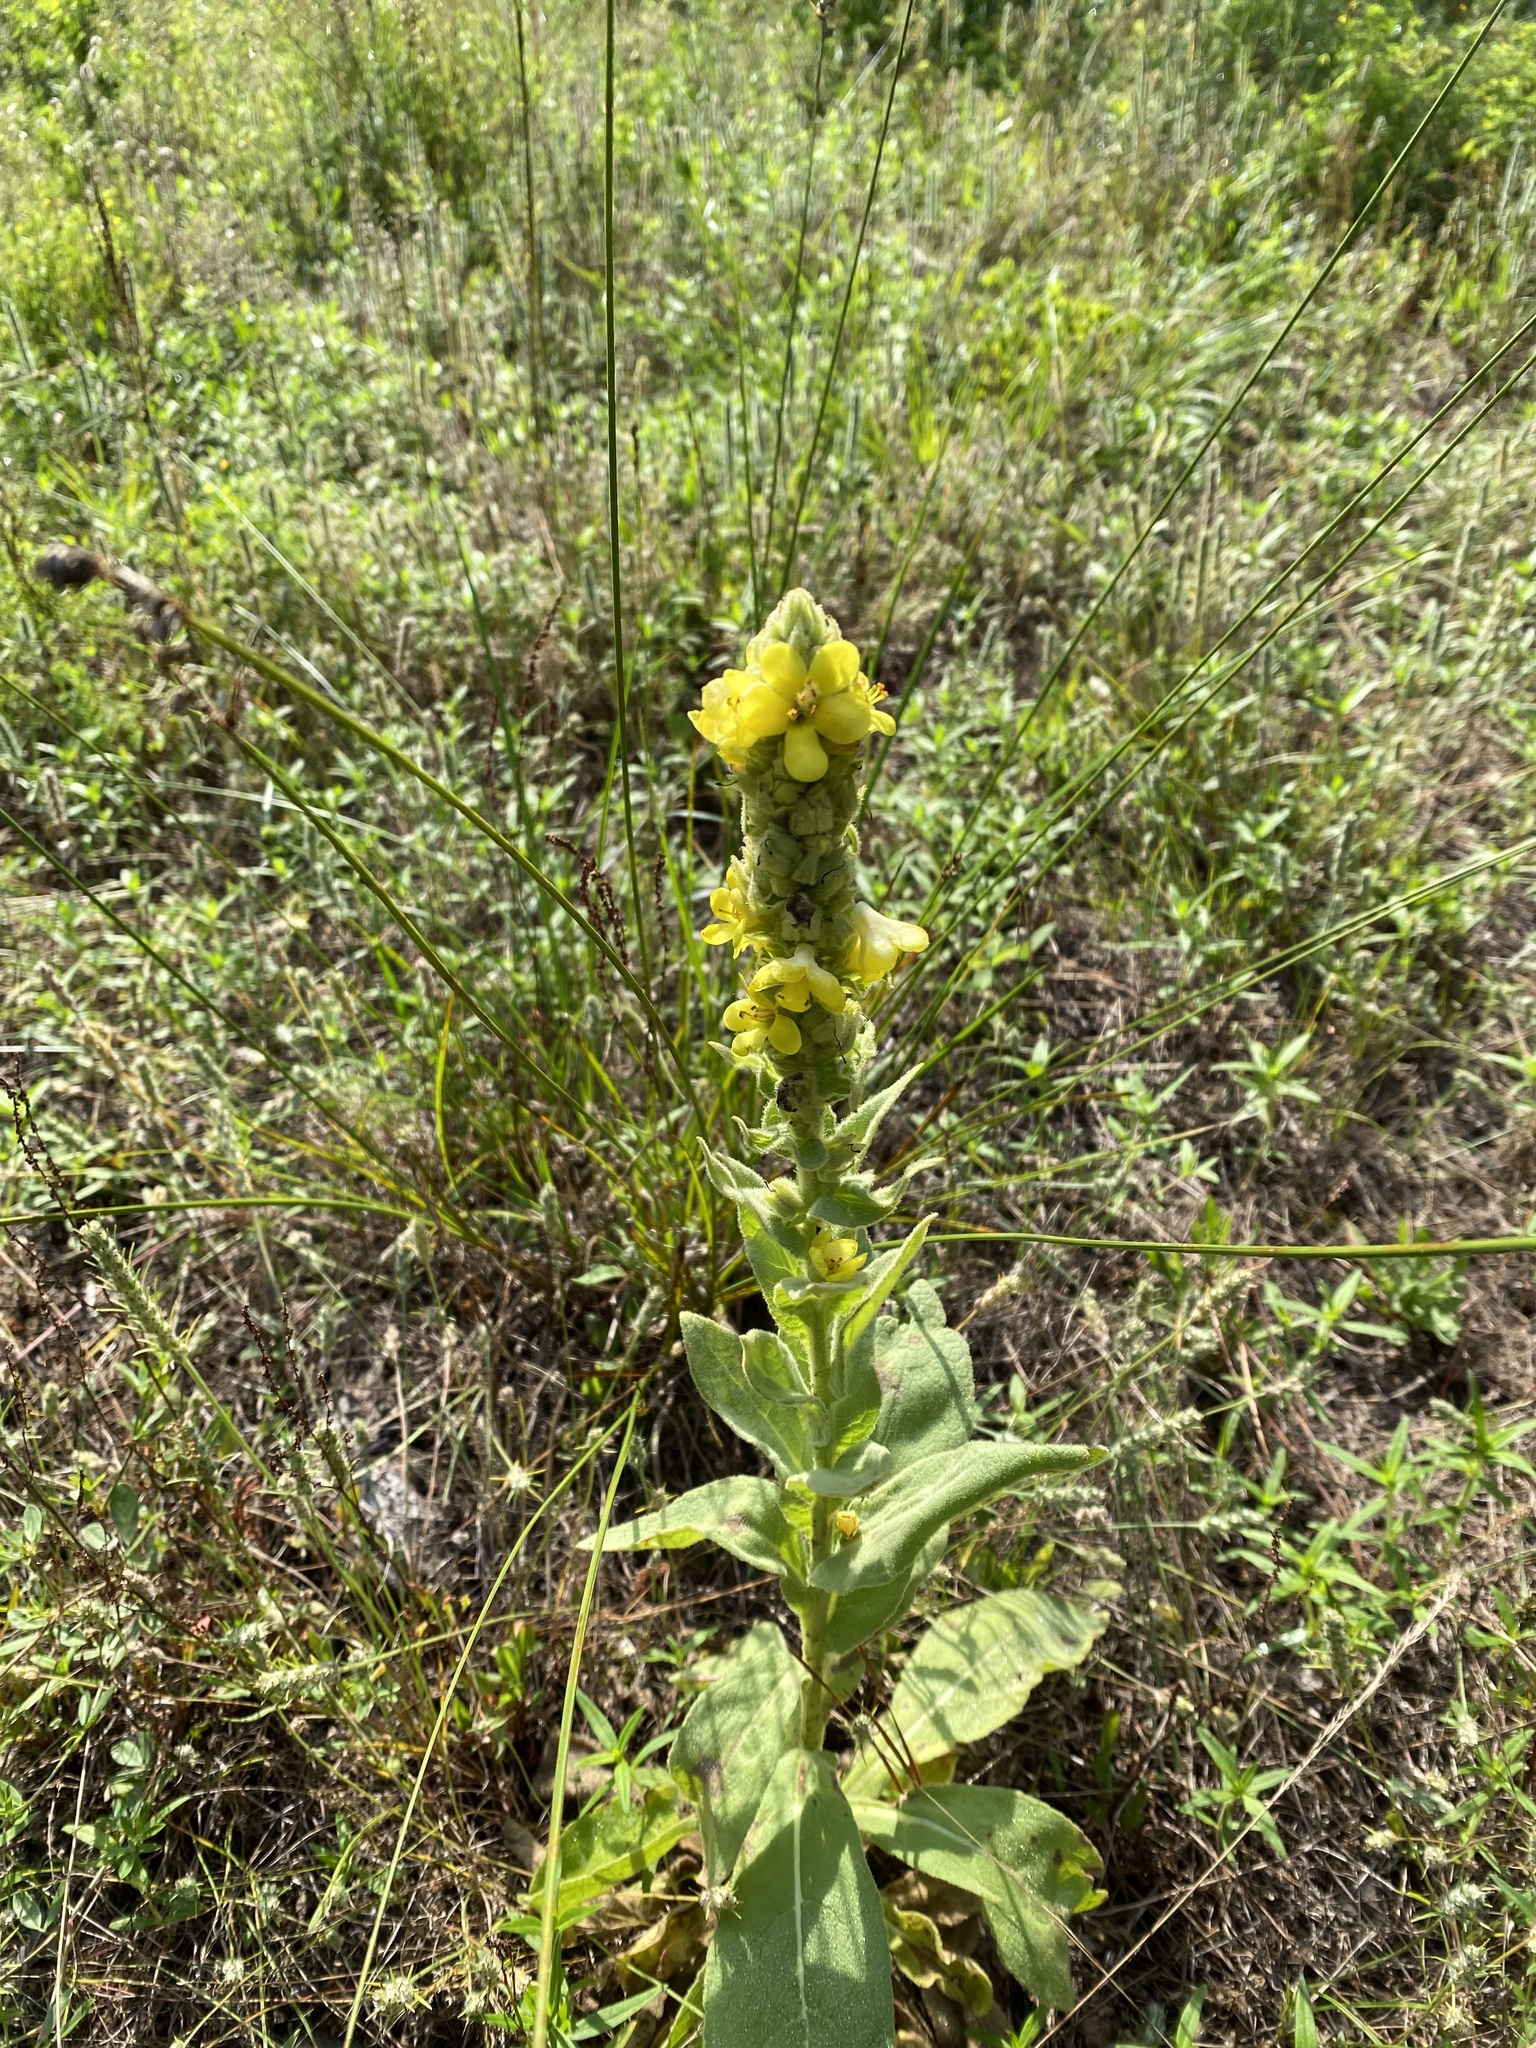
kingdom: Plantae
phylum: Tracheophyta
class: Magnoliopsida
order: Lamiales
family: Scrophulariaceae
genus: Verbascum
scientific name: Verbascum thapsus
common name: Common mullein
